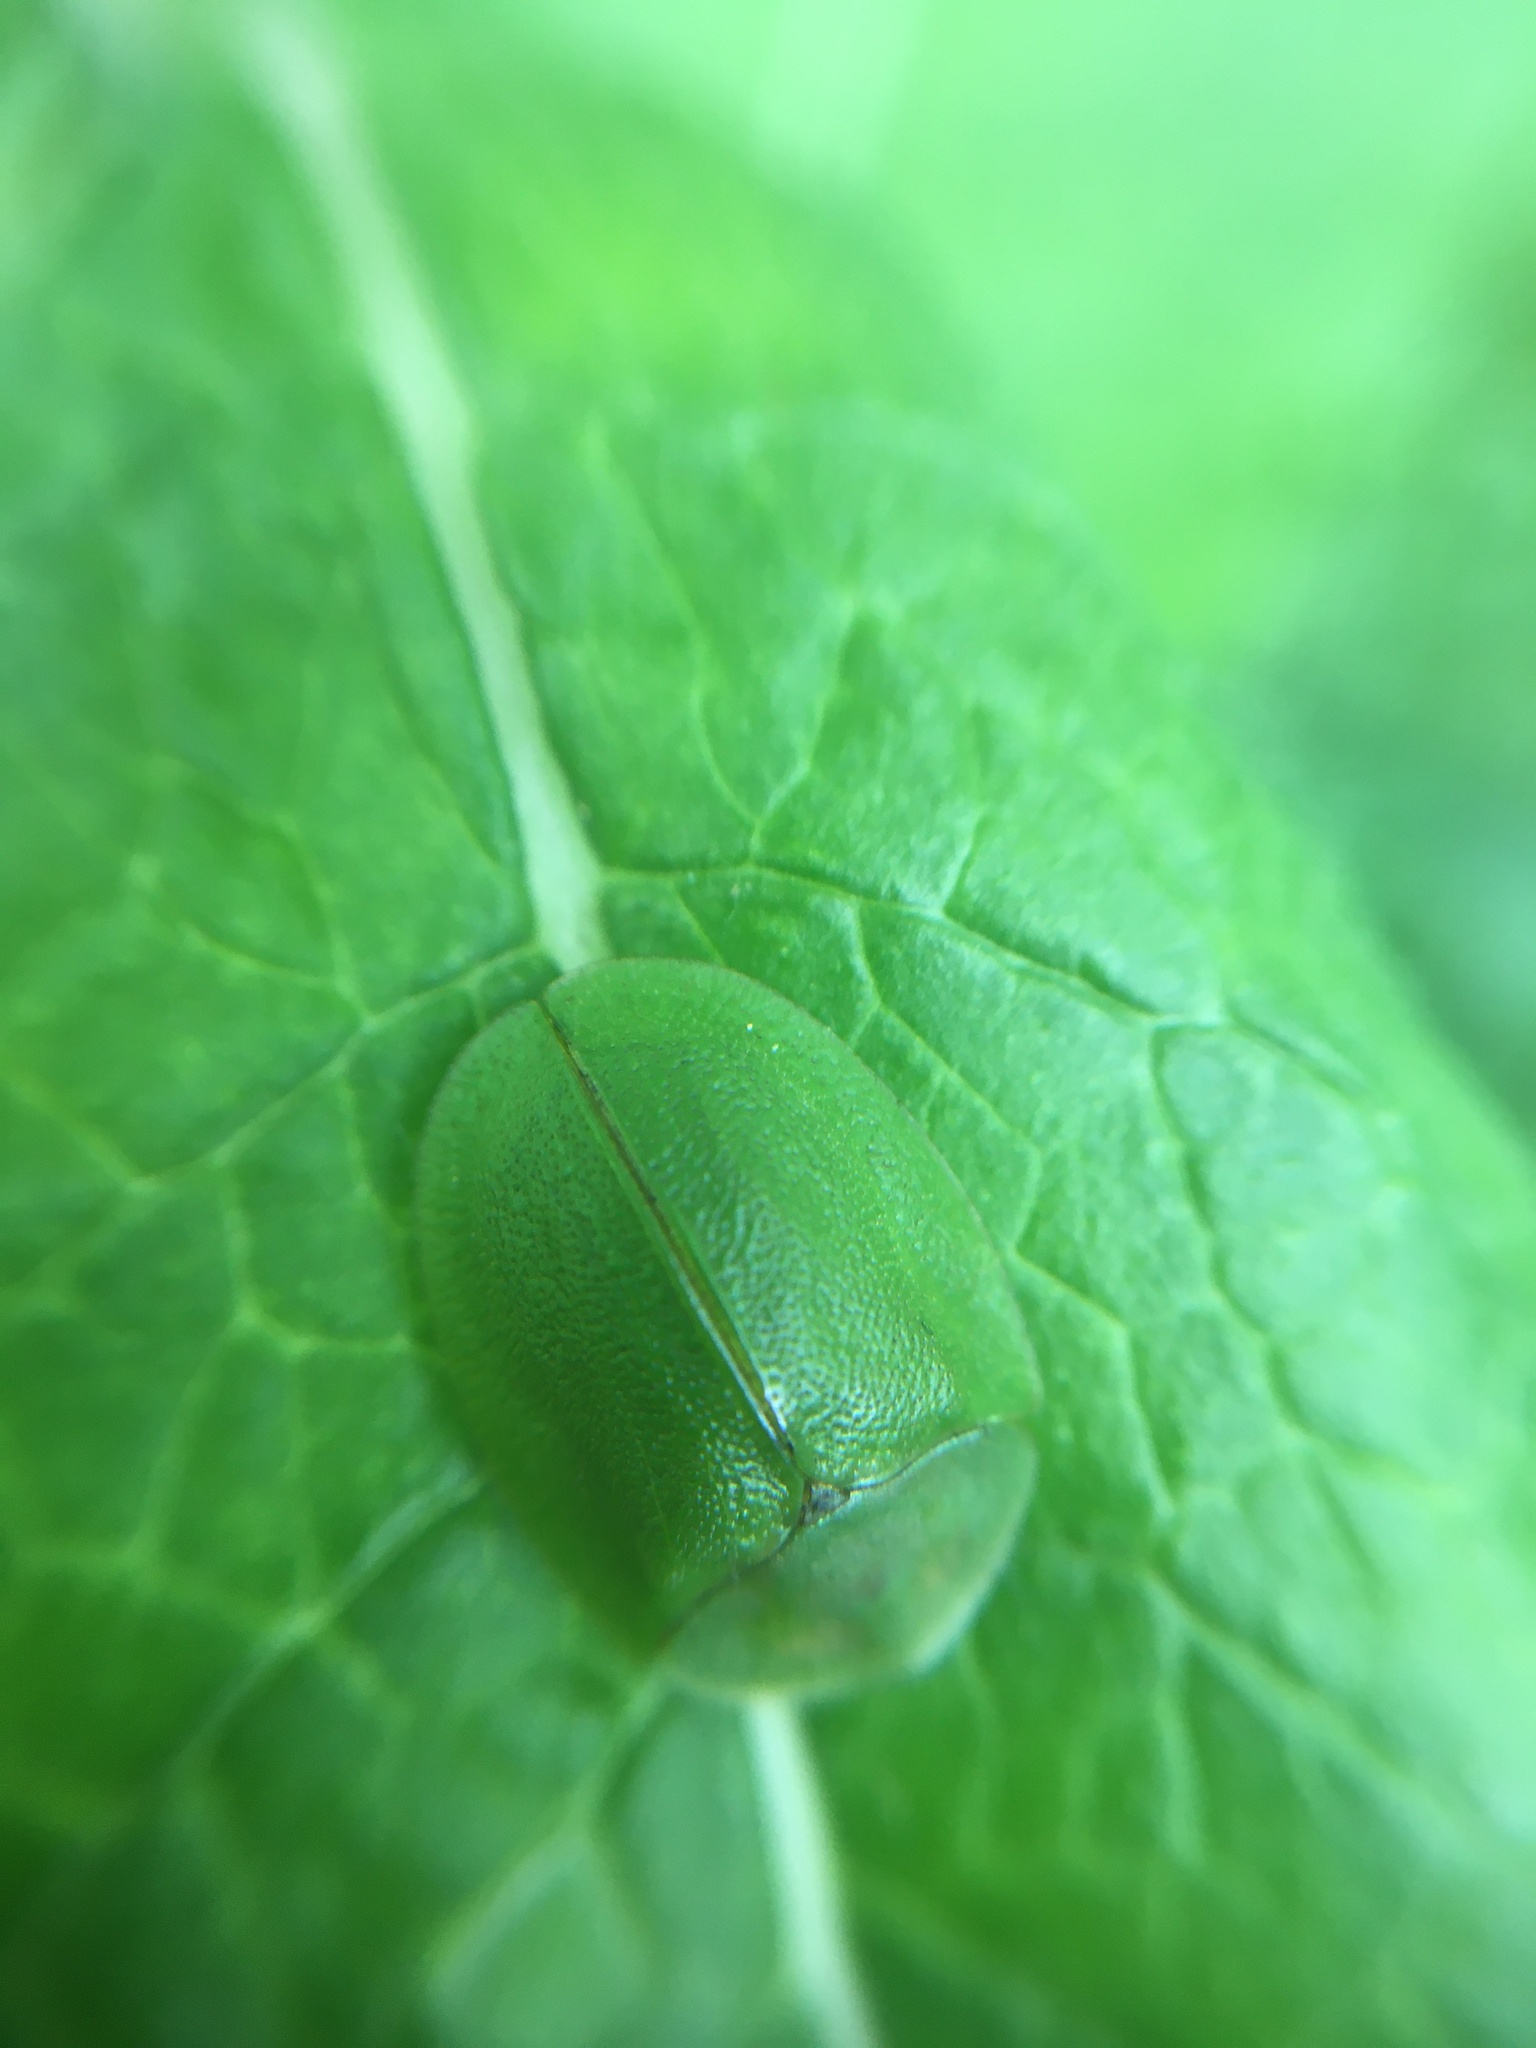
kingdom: Animalia
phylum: Arthropoda
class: Insecta
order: Coleoptera
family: Chrysomelidae
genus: Cassida
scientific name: Cassida viridis
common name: Green tortoise beetle
